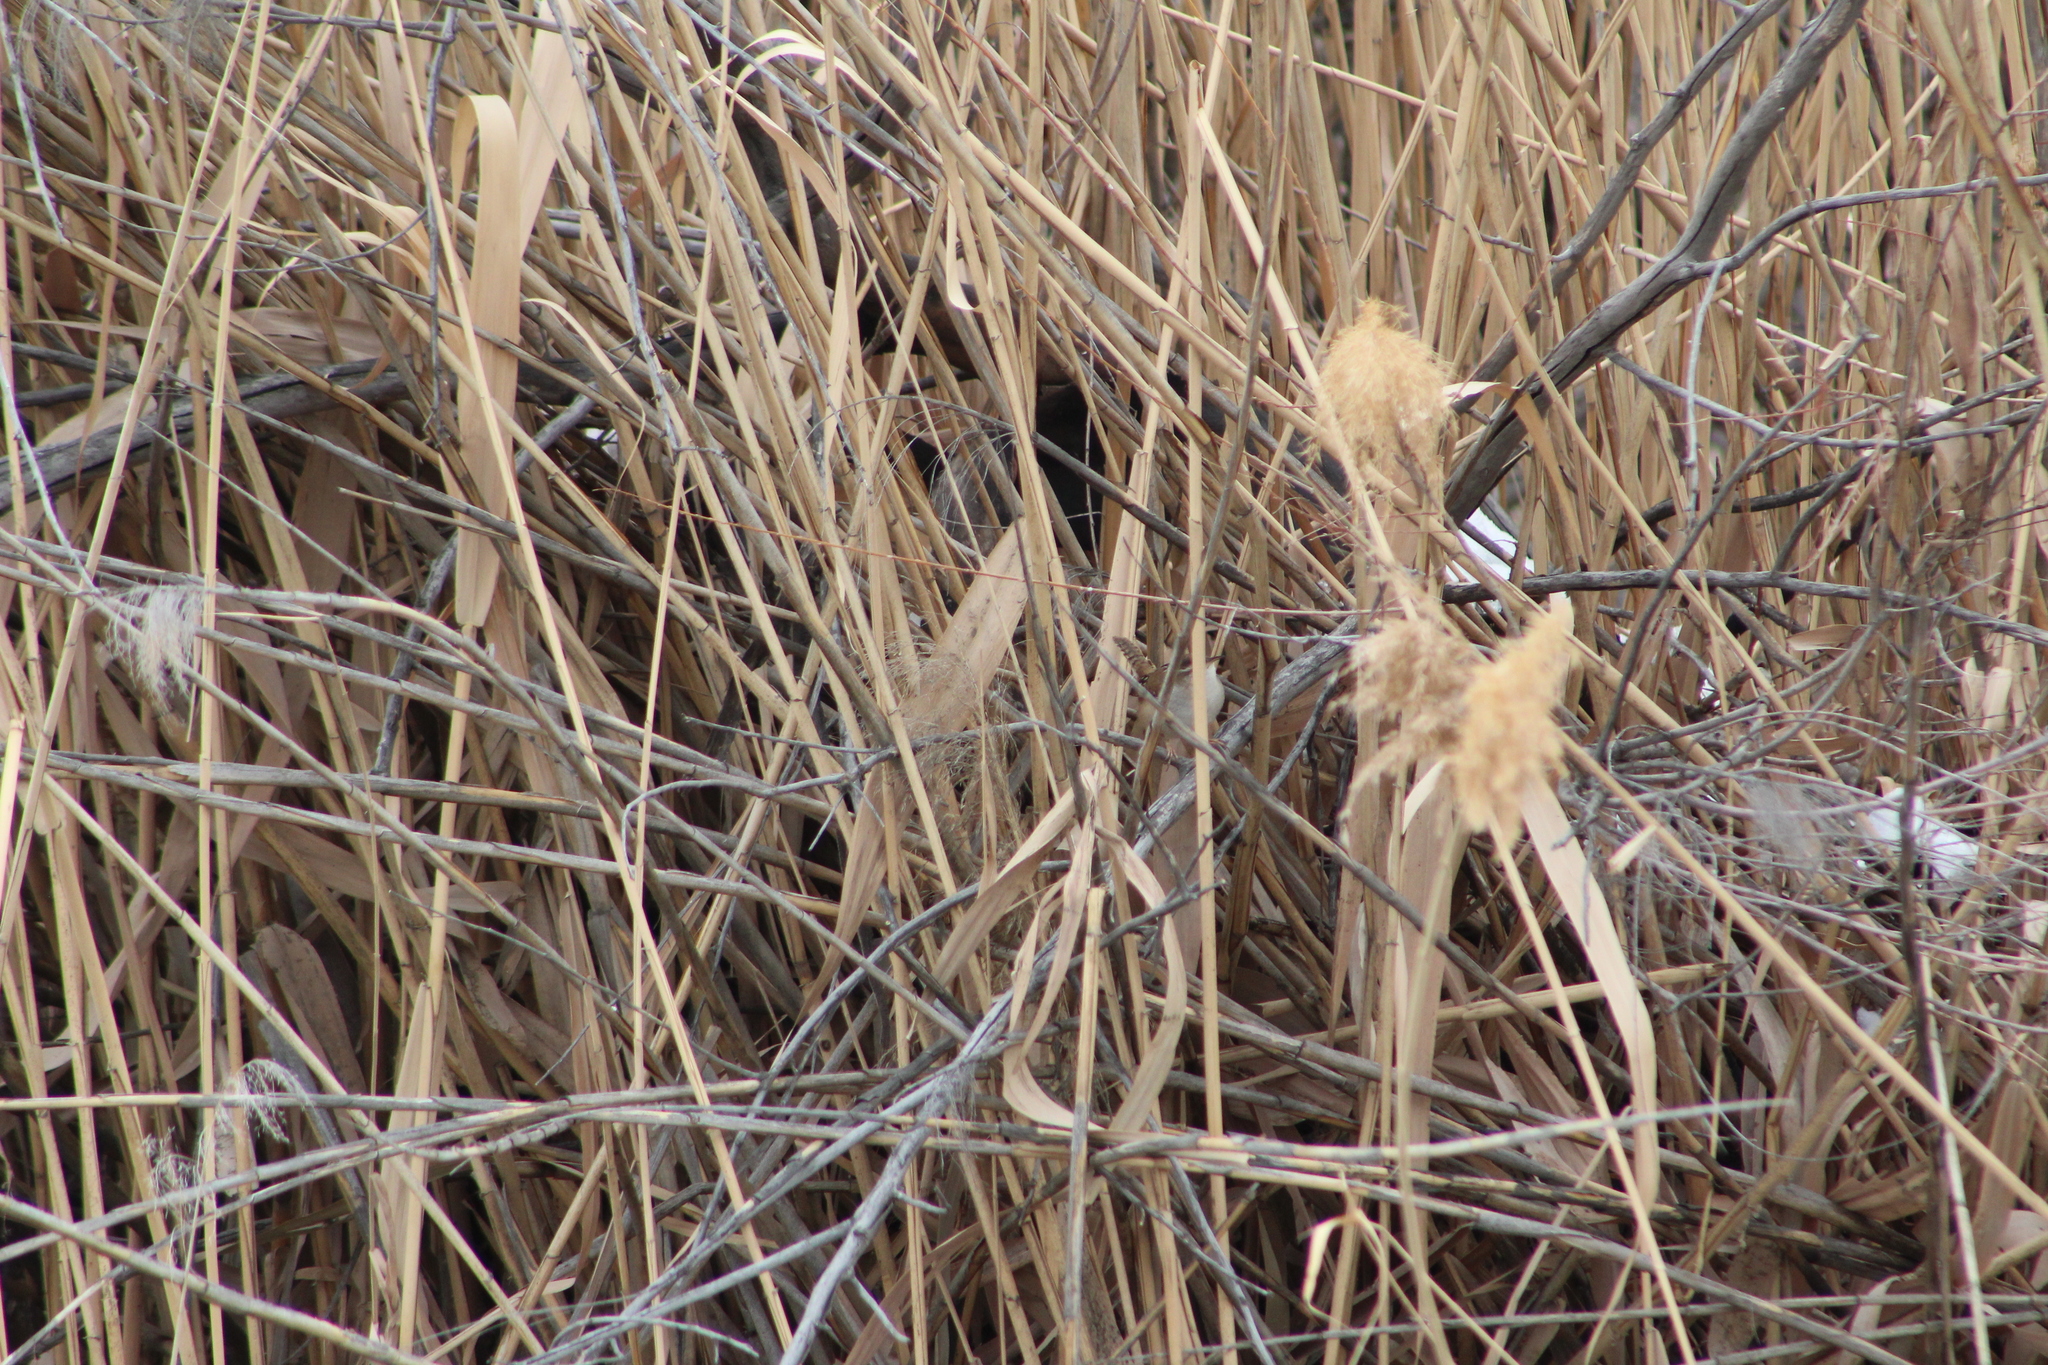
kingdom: Animalia
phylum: Chordata
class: Aves
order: Passeriformes
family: Troglodytidae
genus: Cistothorus
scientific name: Cistothorus palustris
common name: Marsh wren
